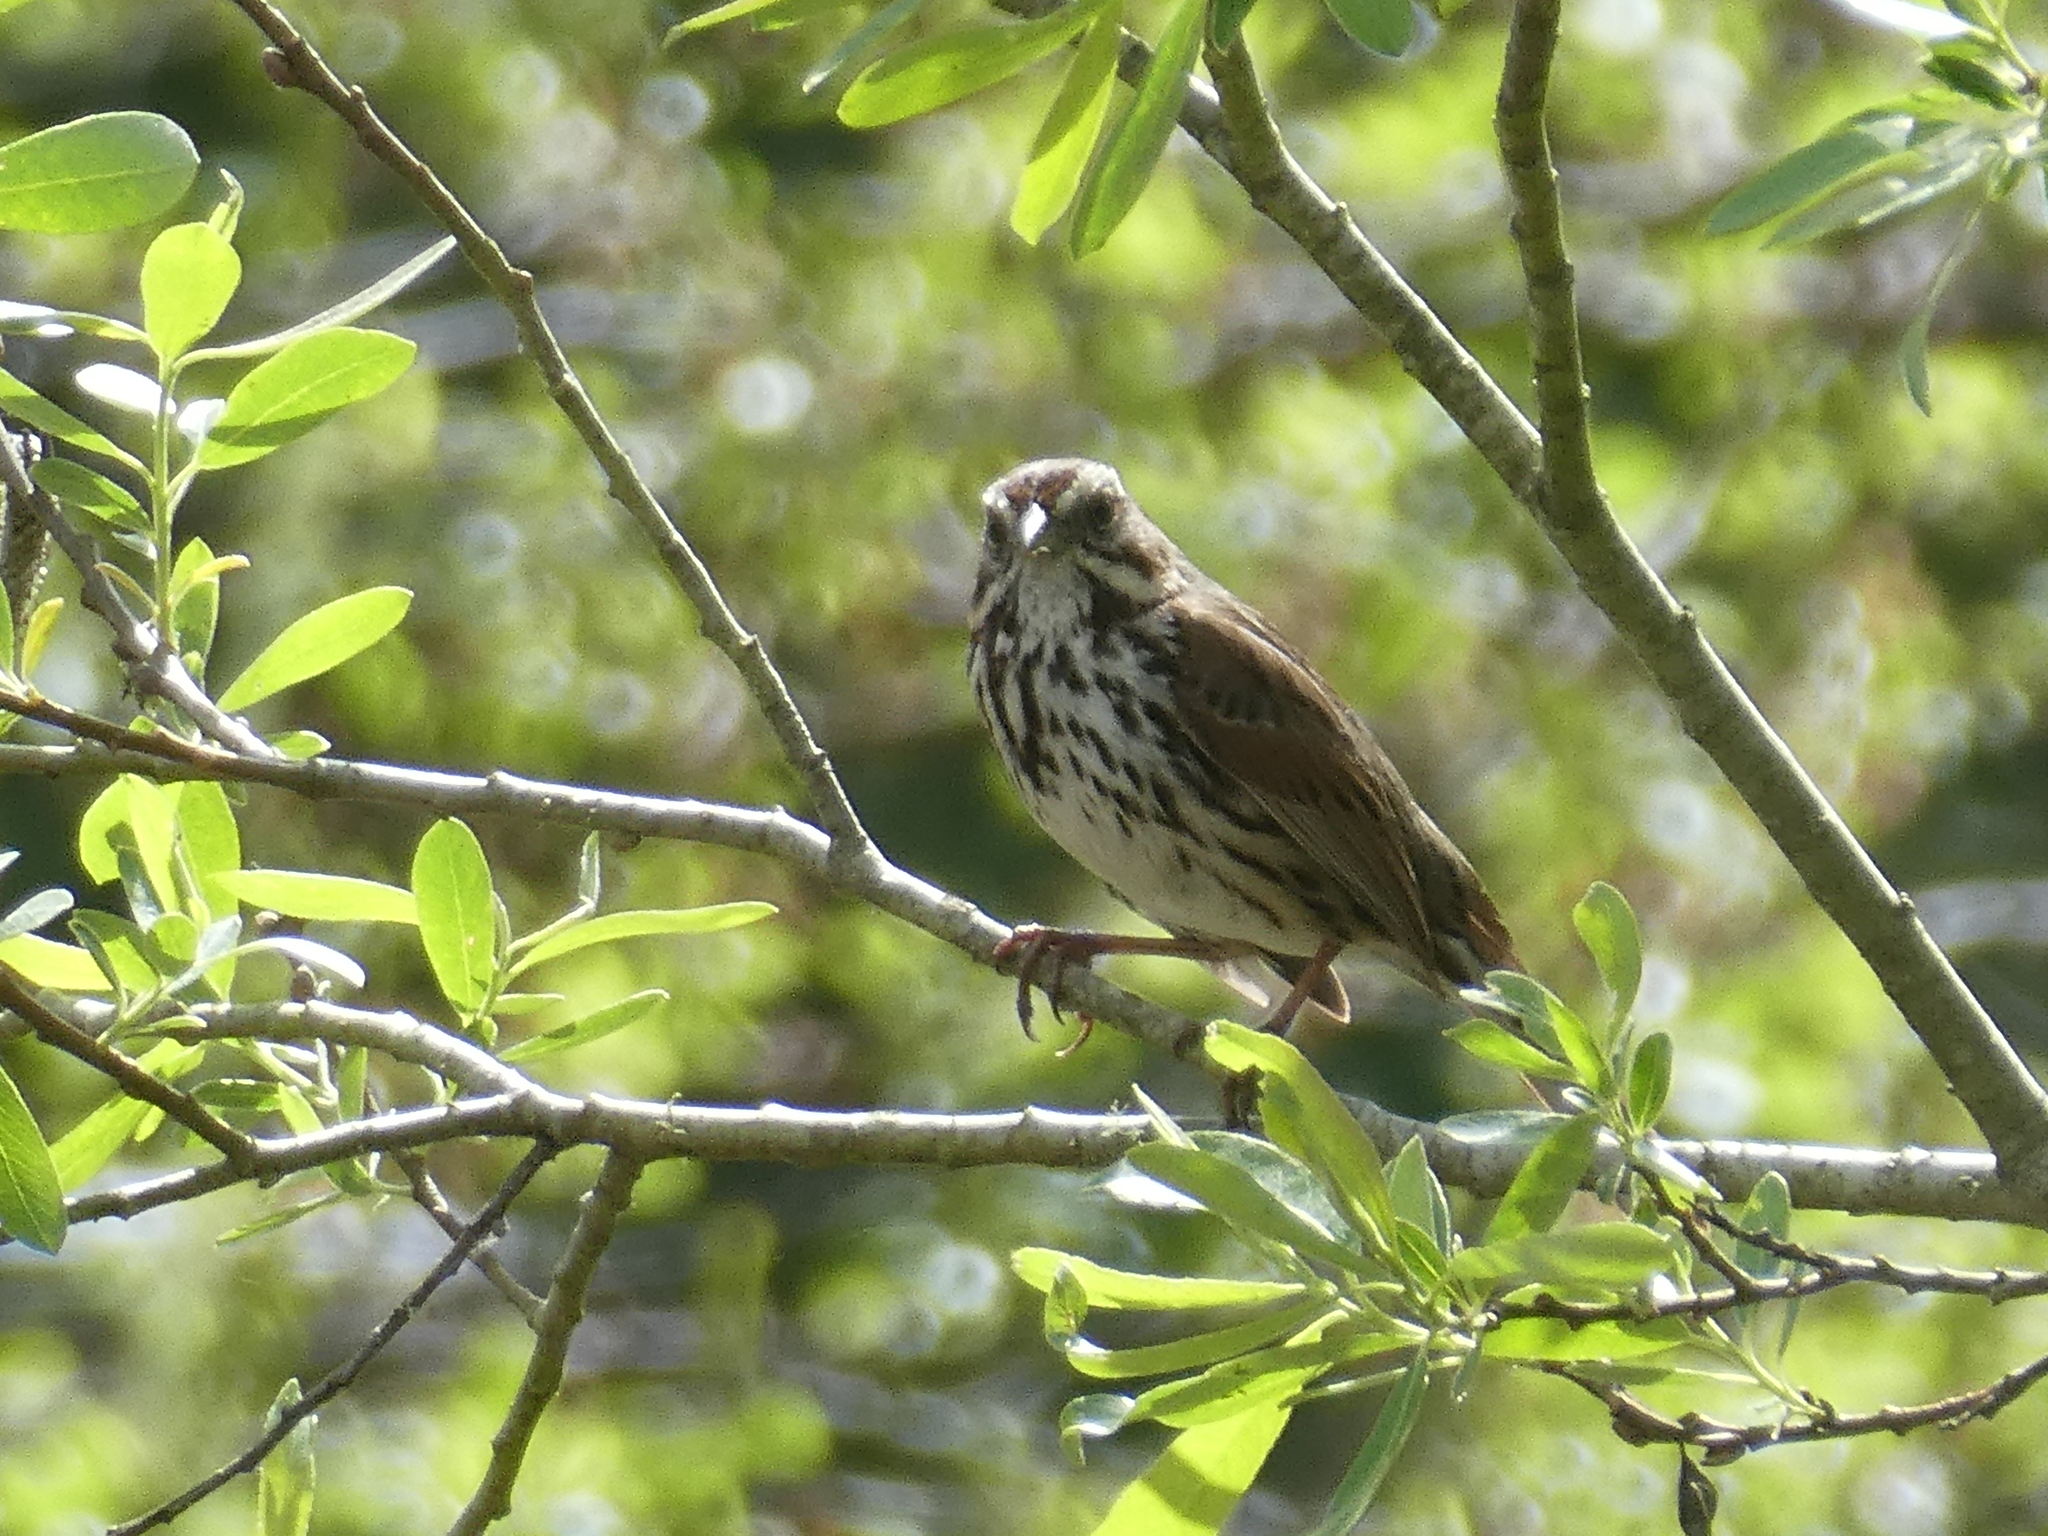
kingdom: Animalia
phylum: Chordata
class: Aves
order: Passeriformes
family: Passerellidae
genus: Melospiza
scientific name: Melospiza melodia
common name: Song sparrow
